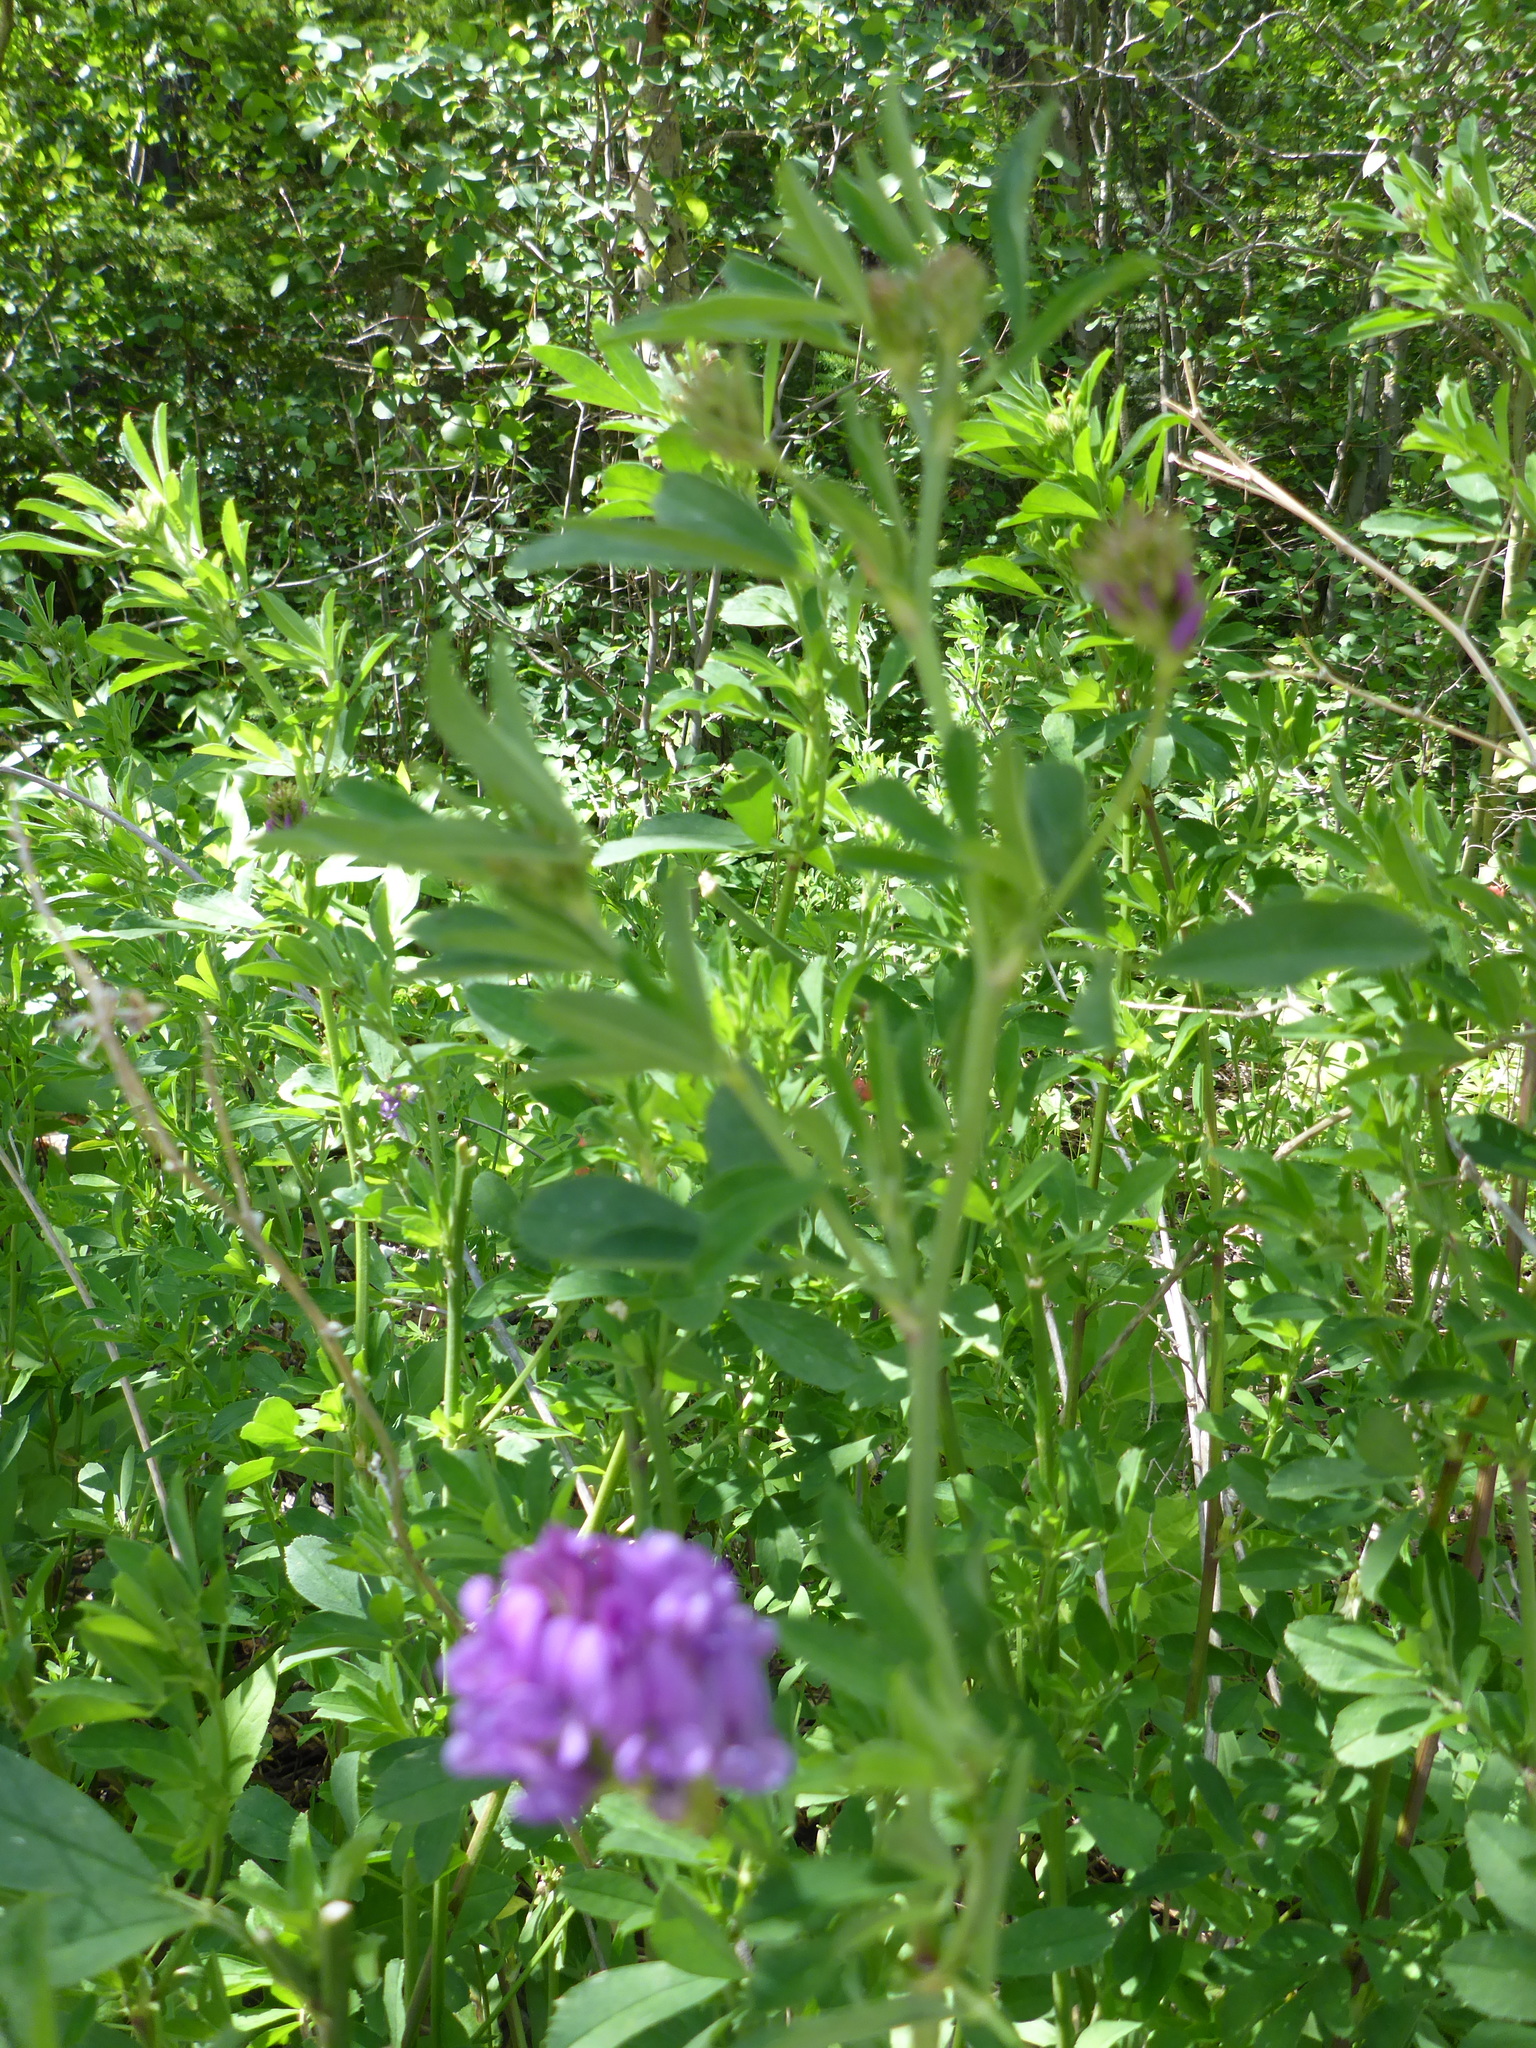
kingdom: Plantae
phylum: Tracheophyta
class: Magnoliopsida
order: Fabales
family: Fabaceae
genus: Medicago
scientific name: Medicago sativa
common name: Alfalfa
